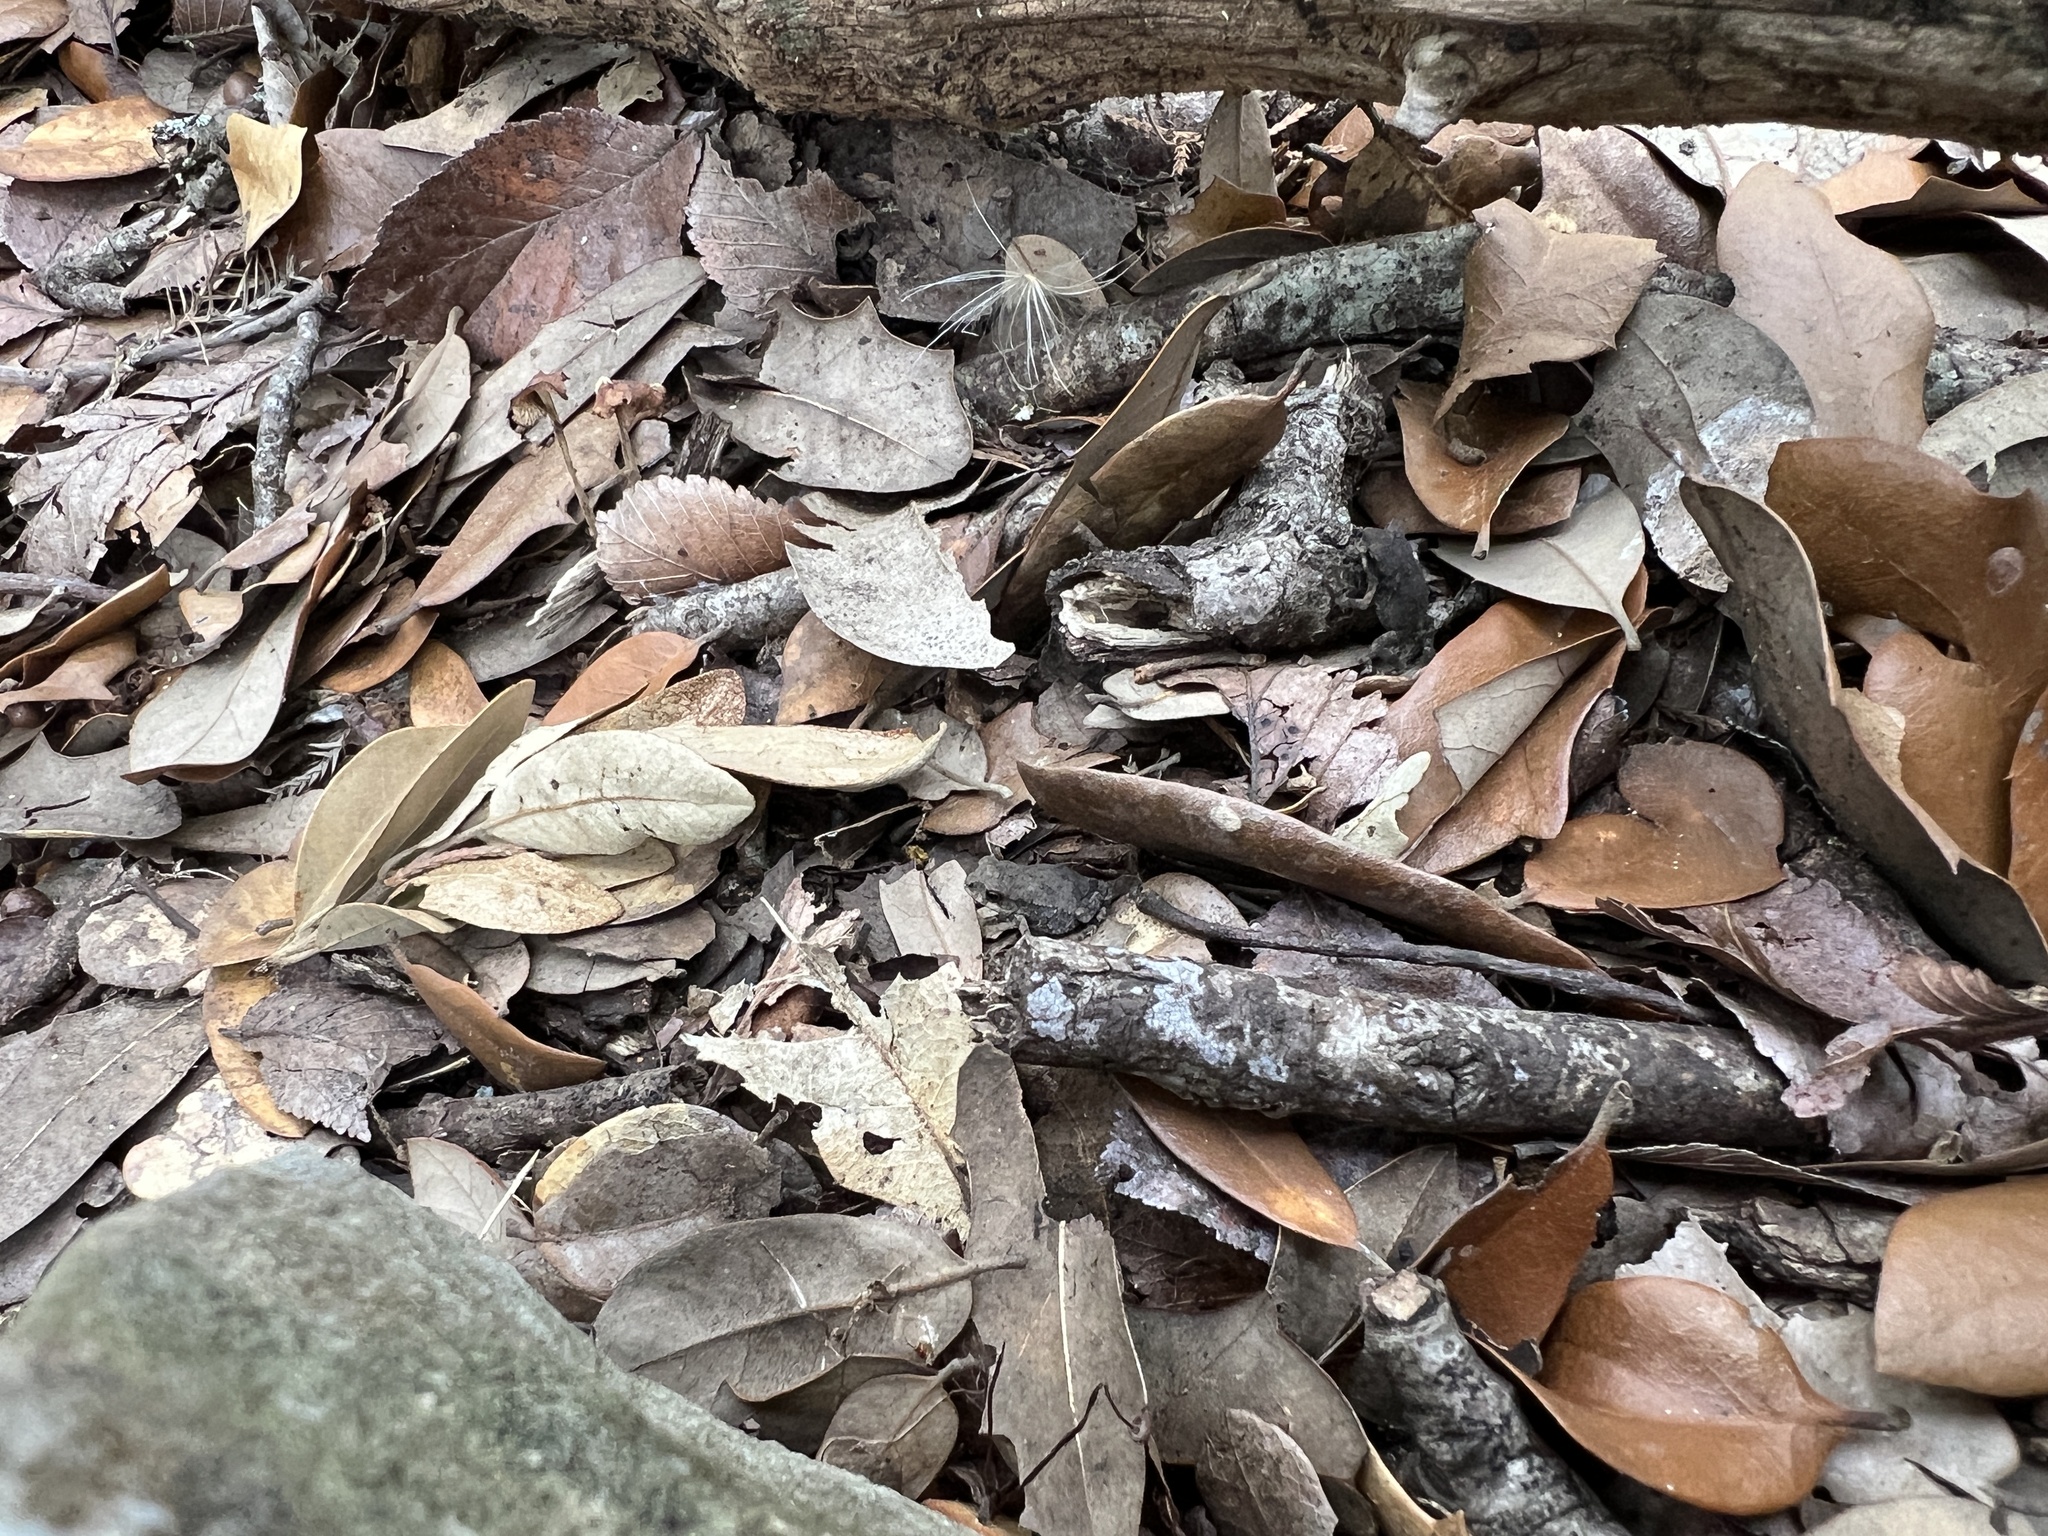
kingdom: Animalia
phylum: Chordata
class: Amphibia
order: Anura
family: Bufonidae
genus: Incilius
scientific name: Incilius nebulifer
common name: Gulf coast toad
